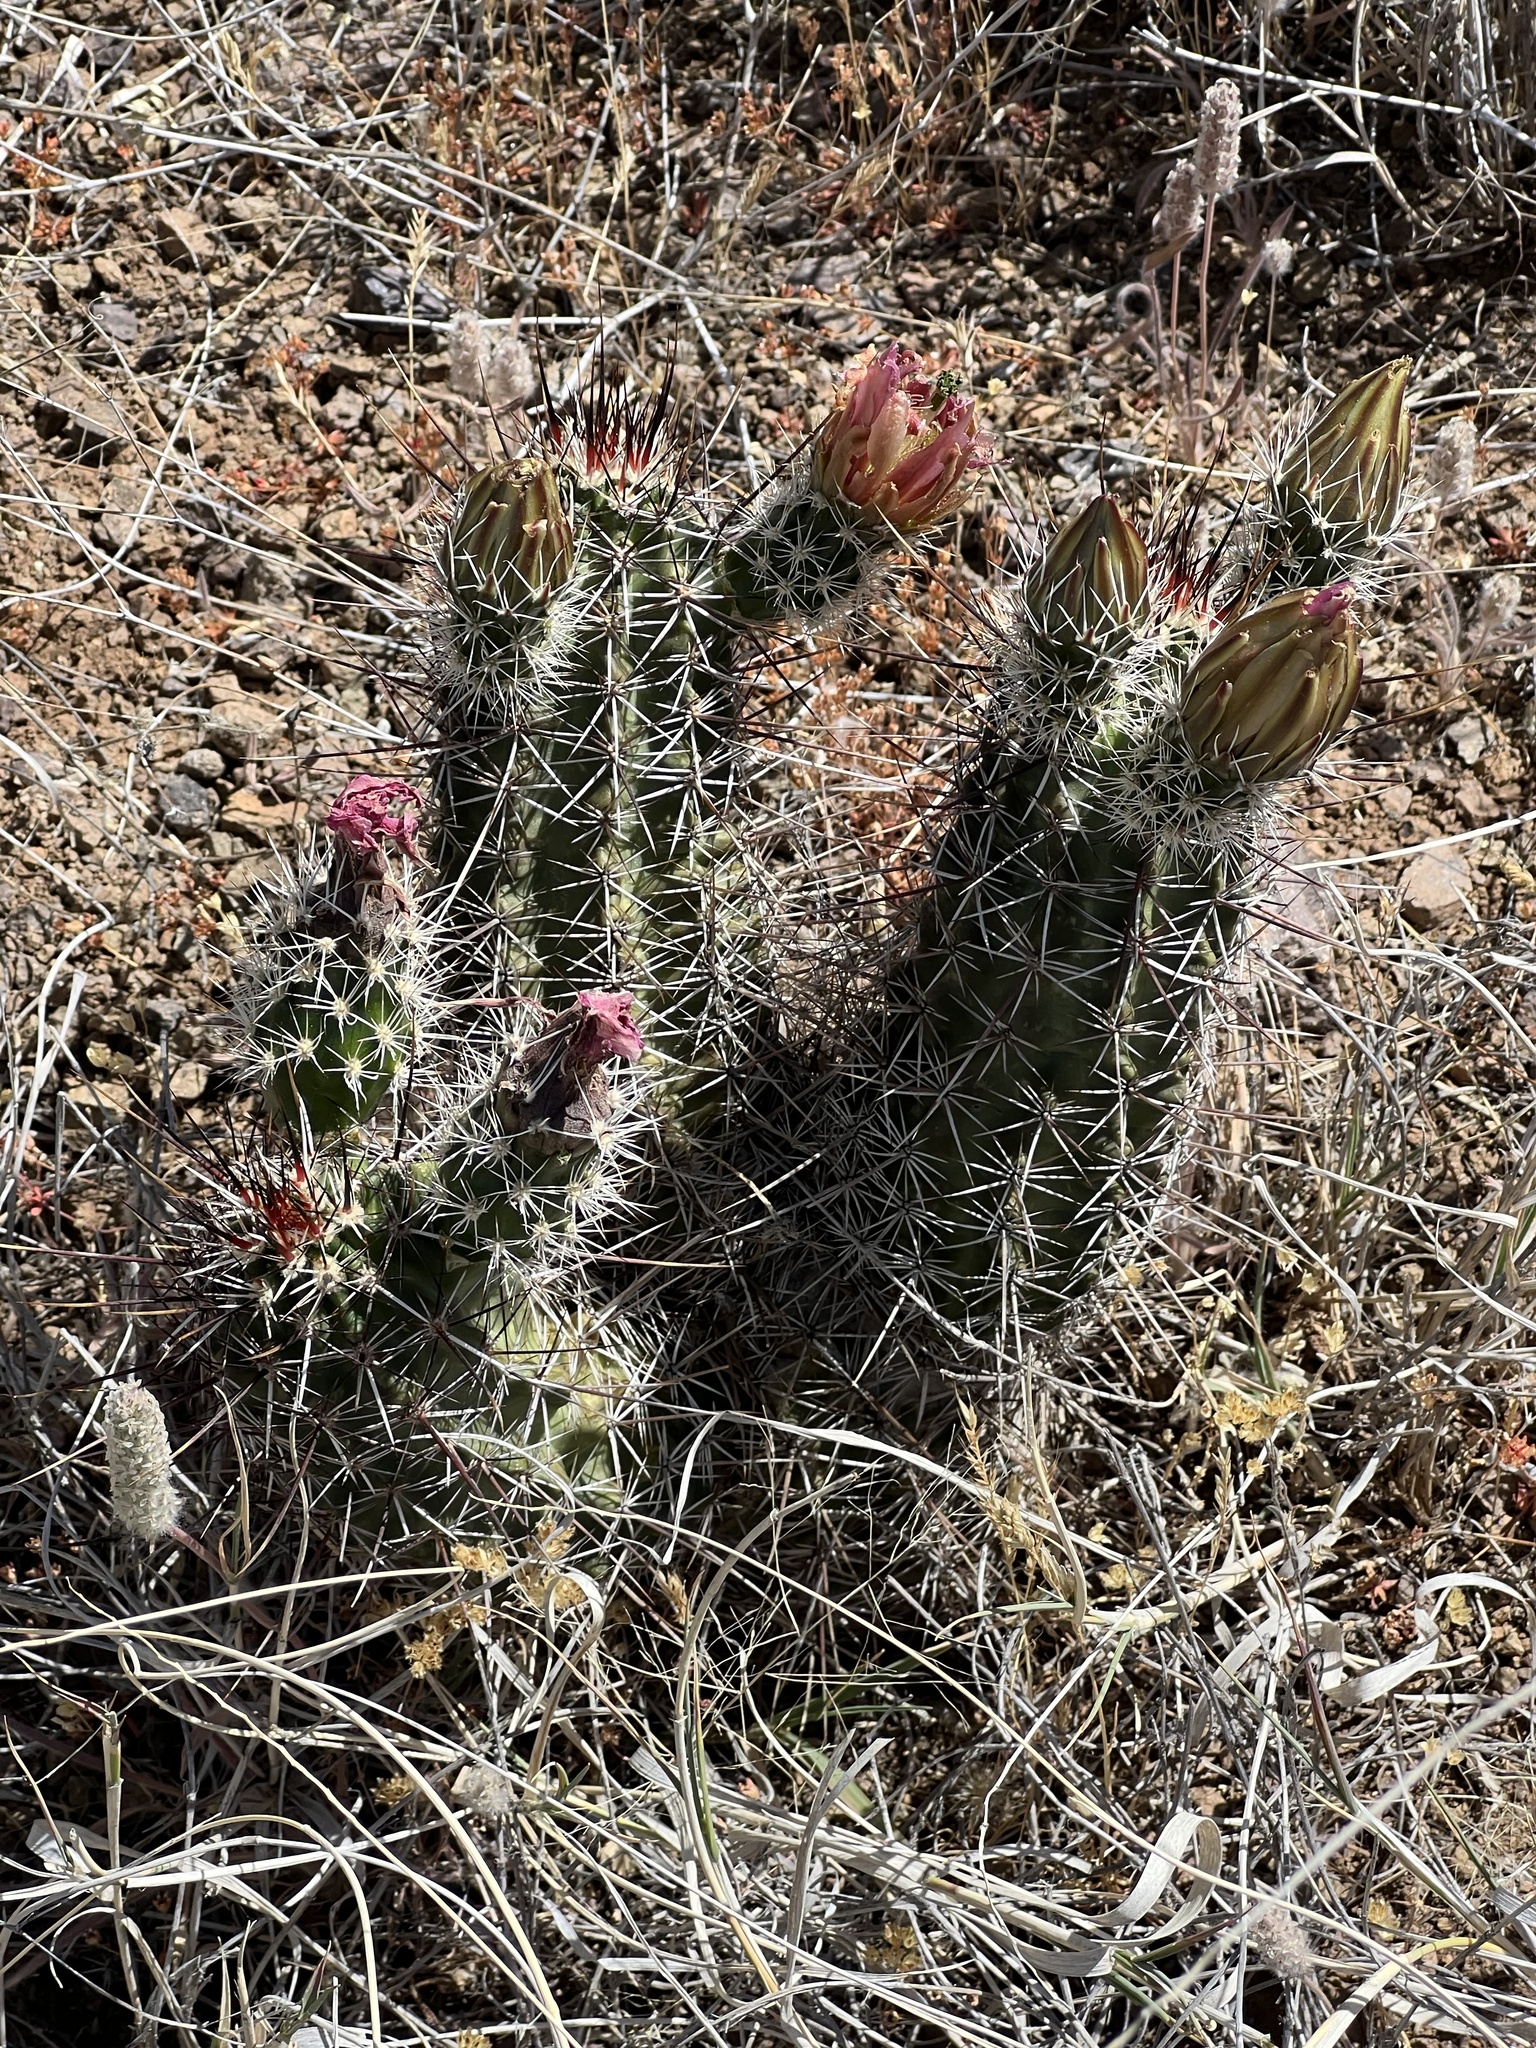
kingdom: Plantae
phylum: Tracheophyta
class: Magnoliopsida
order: Caryophyllales
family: Cactaceae
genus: Echinocereus
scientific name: Echinocereus fendleri
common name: Fendler's hedgehog cactus
